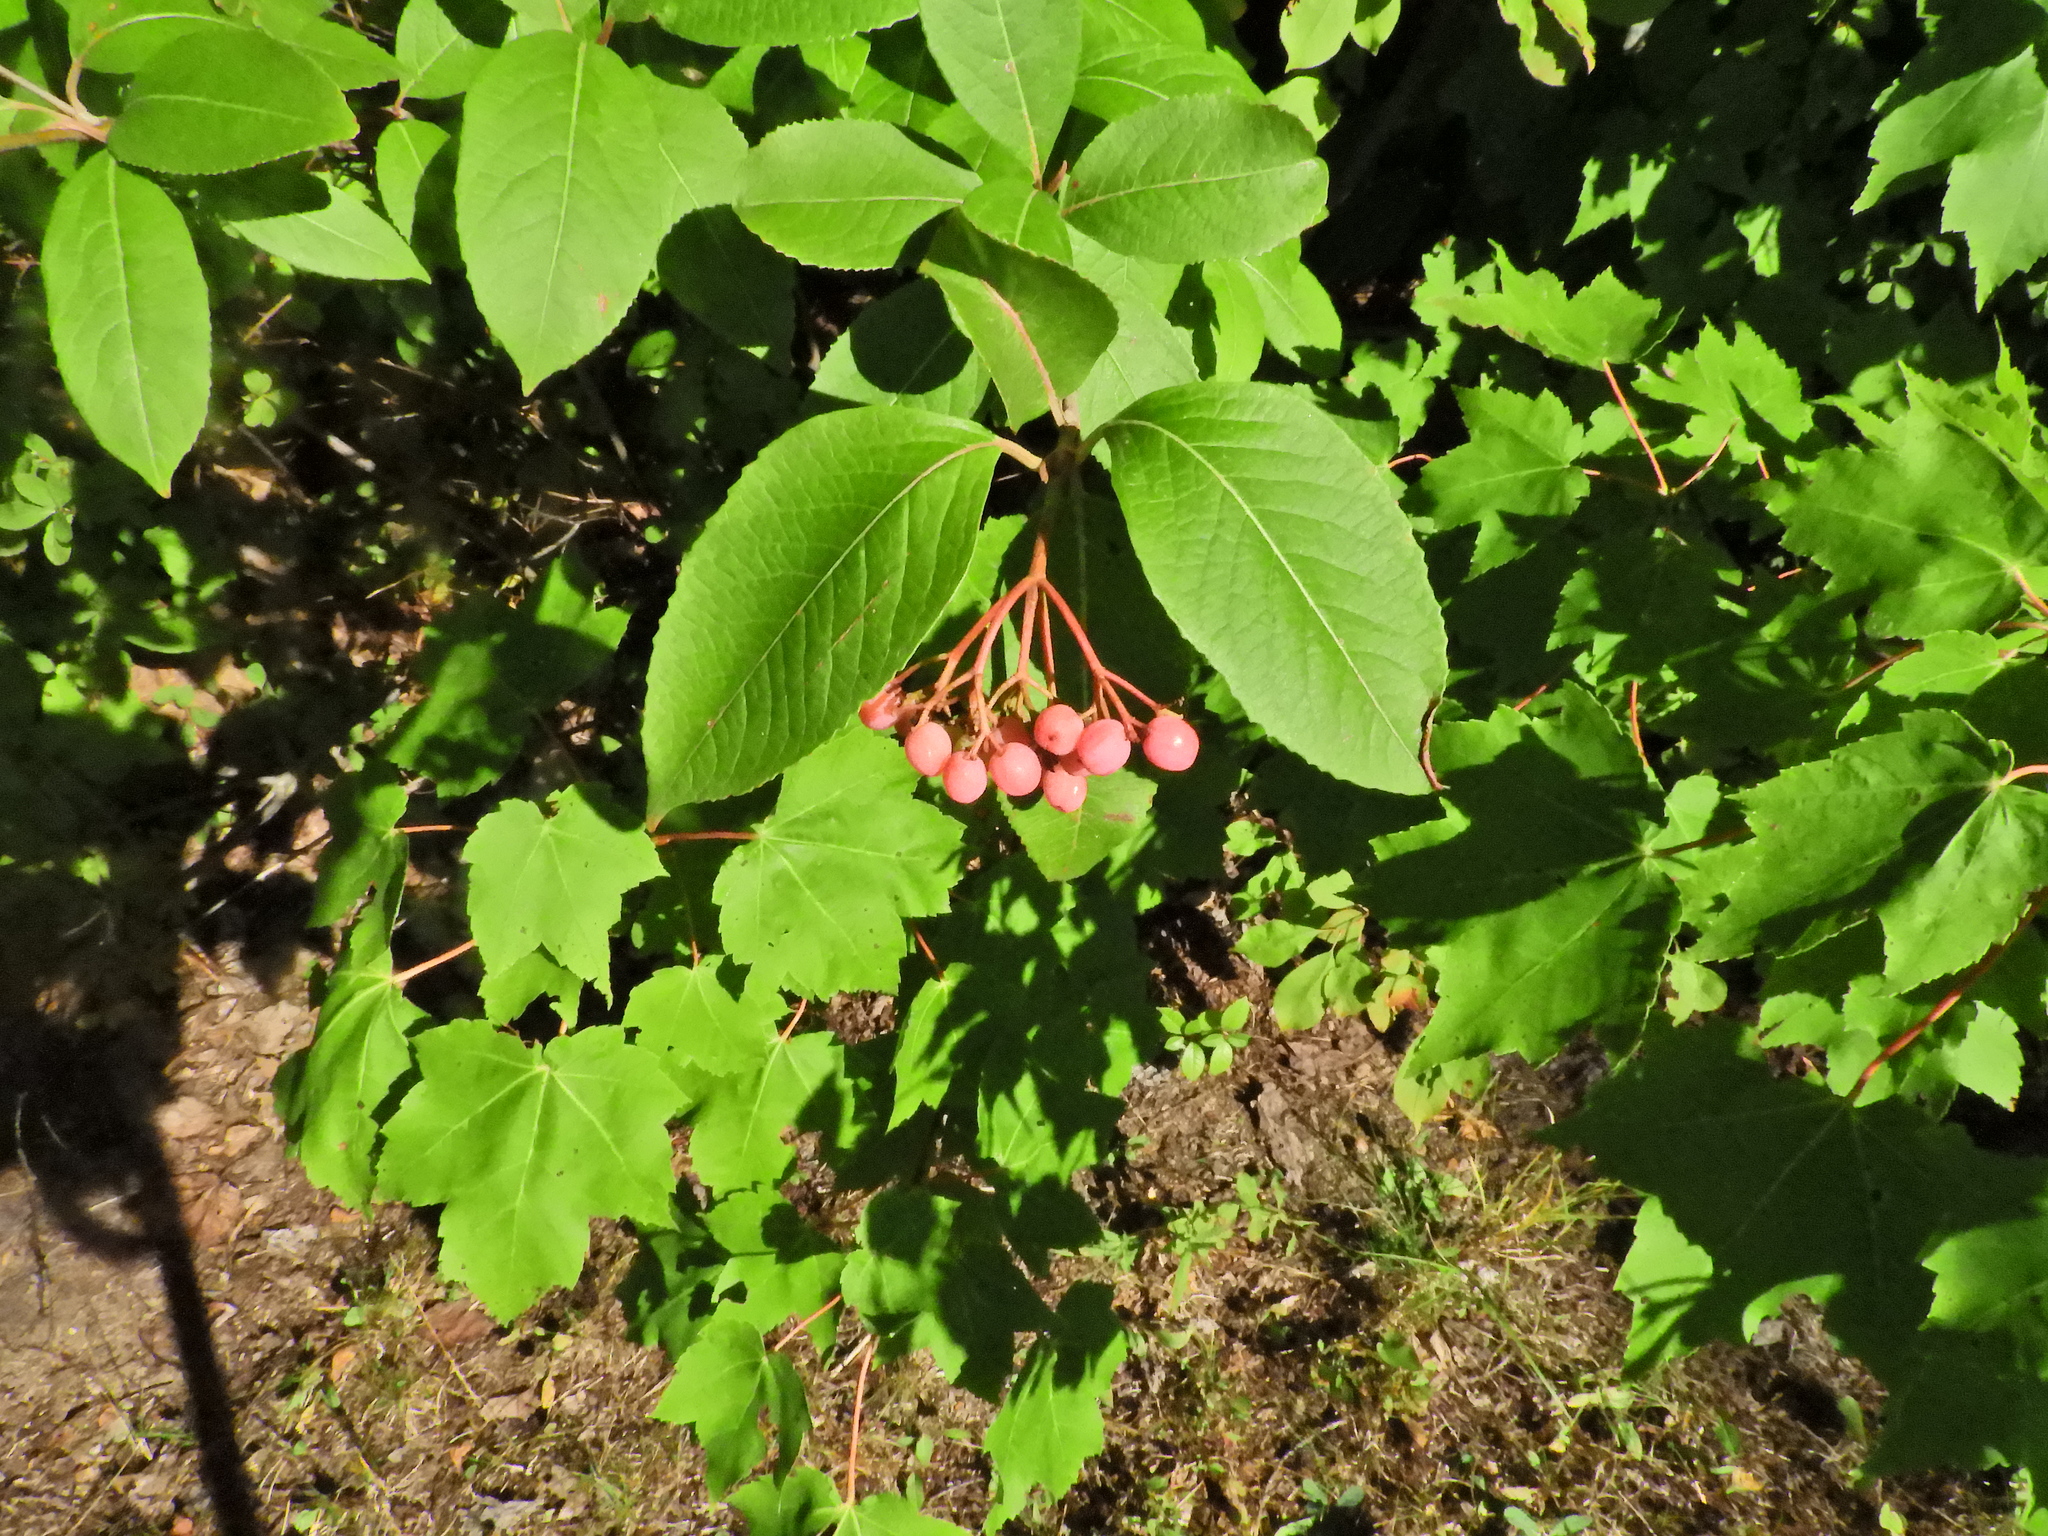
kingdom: Plantae
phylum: Tracheophyta
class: Magnoliopsida
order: Dipsacales
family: Viburnaceae
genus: Viburnum
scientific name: Viburnum cassinoides
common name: Swamp haw
